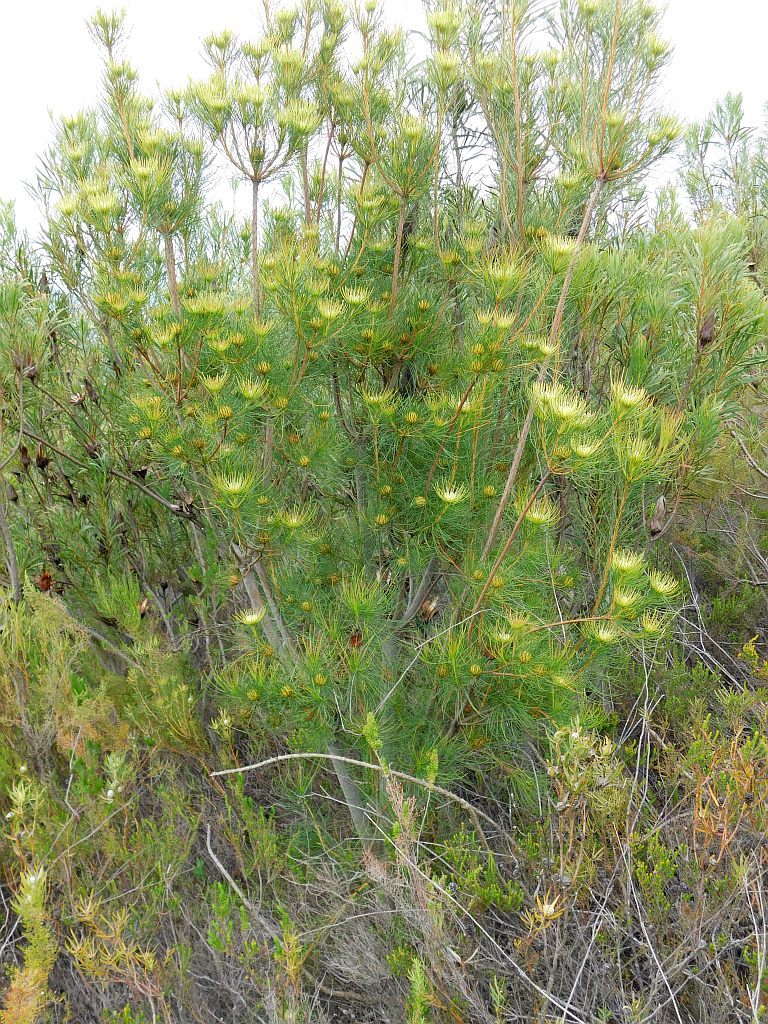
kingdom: Plantae
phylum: Tracheophyta
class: Magnoliopsida
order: Proteales
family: Proteaceae
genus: Aulax
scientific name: Aulax cancellata
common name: Channel-leaf featherbush
